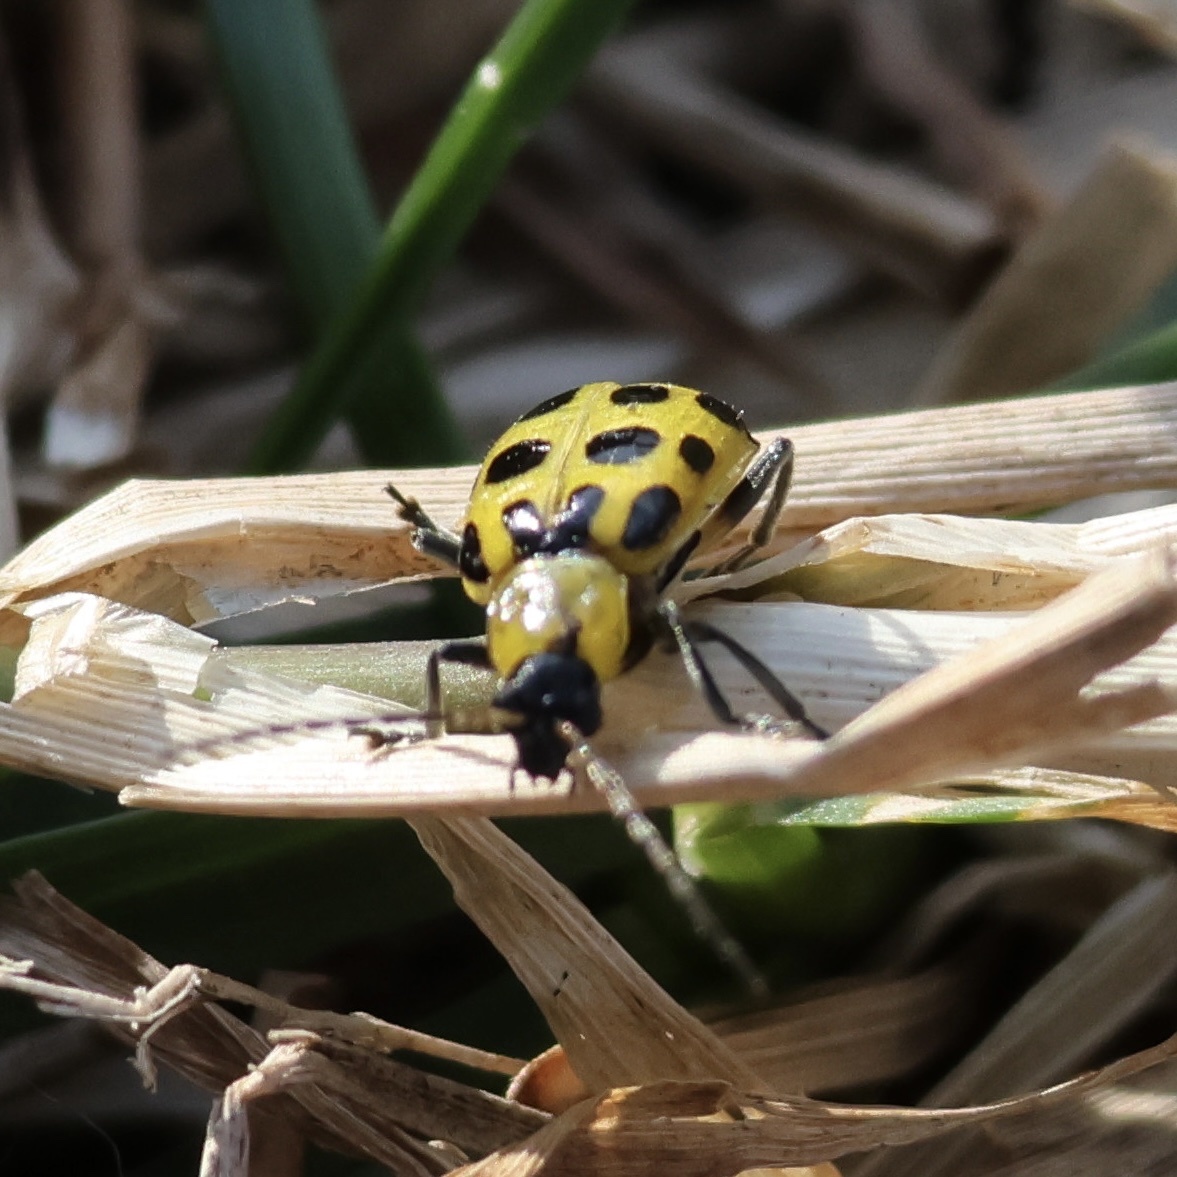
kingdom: Animalia
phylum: Arthropoda
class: Insecta
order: Coleoptera
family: Chrysomelidae
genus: Diabrotica
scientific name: Diabrotica undecimpunctata
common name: Spotted cucumber beetle
